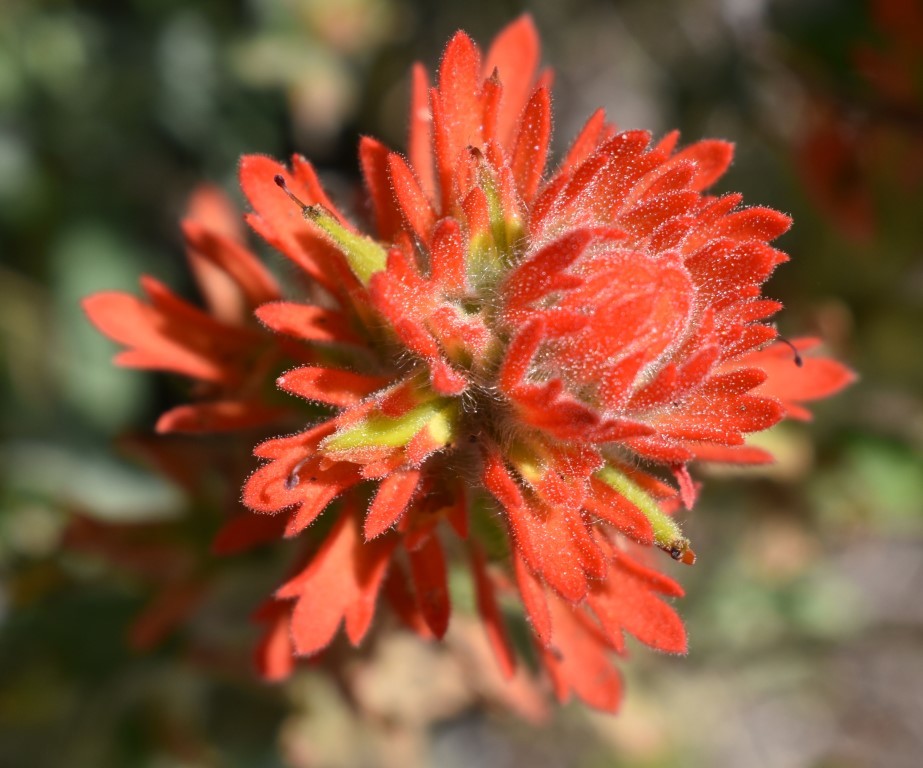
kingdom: Plantae
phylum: Tracheophyta
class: Magnoliopsida
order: Lamiales
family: Orobanchaceae
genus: Castilleja
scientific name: Castilleja pruinosa
